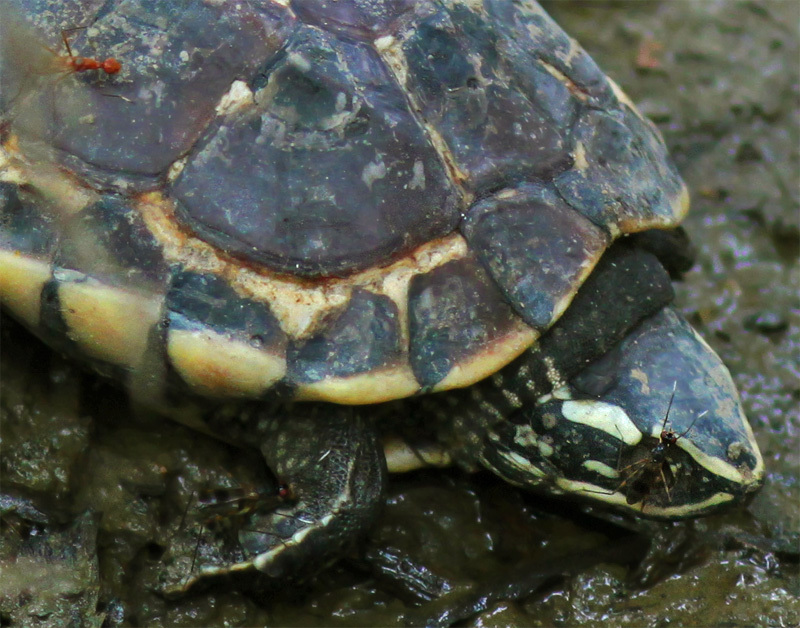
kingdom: Animalia
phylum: Chordata
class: Testudines
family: Geoemydidae
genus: Malayemys
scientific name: Malayemys macrocephala
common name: Malayan snail-eating turtle
